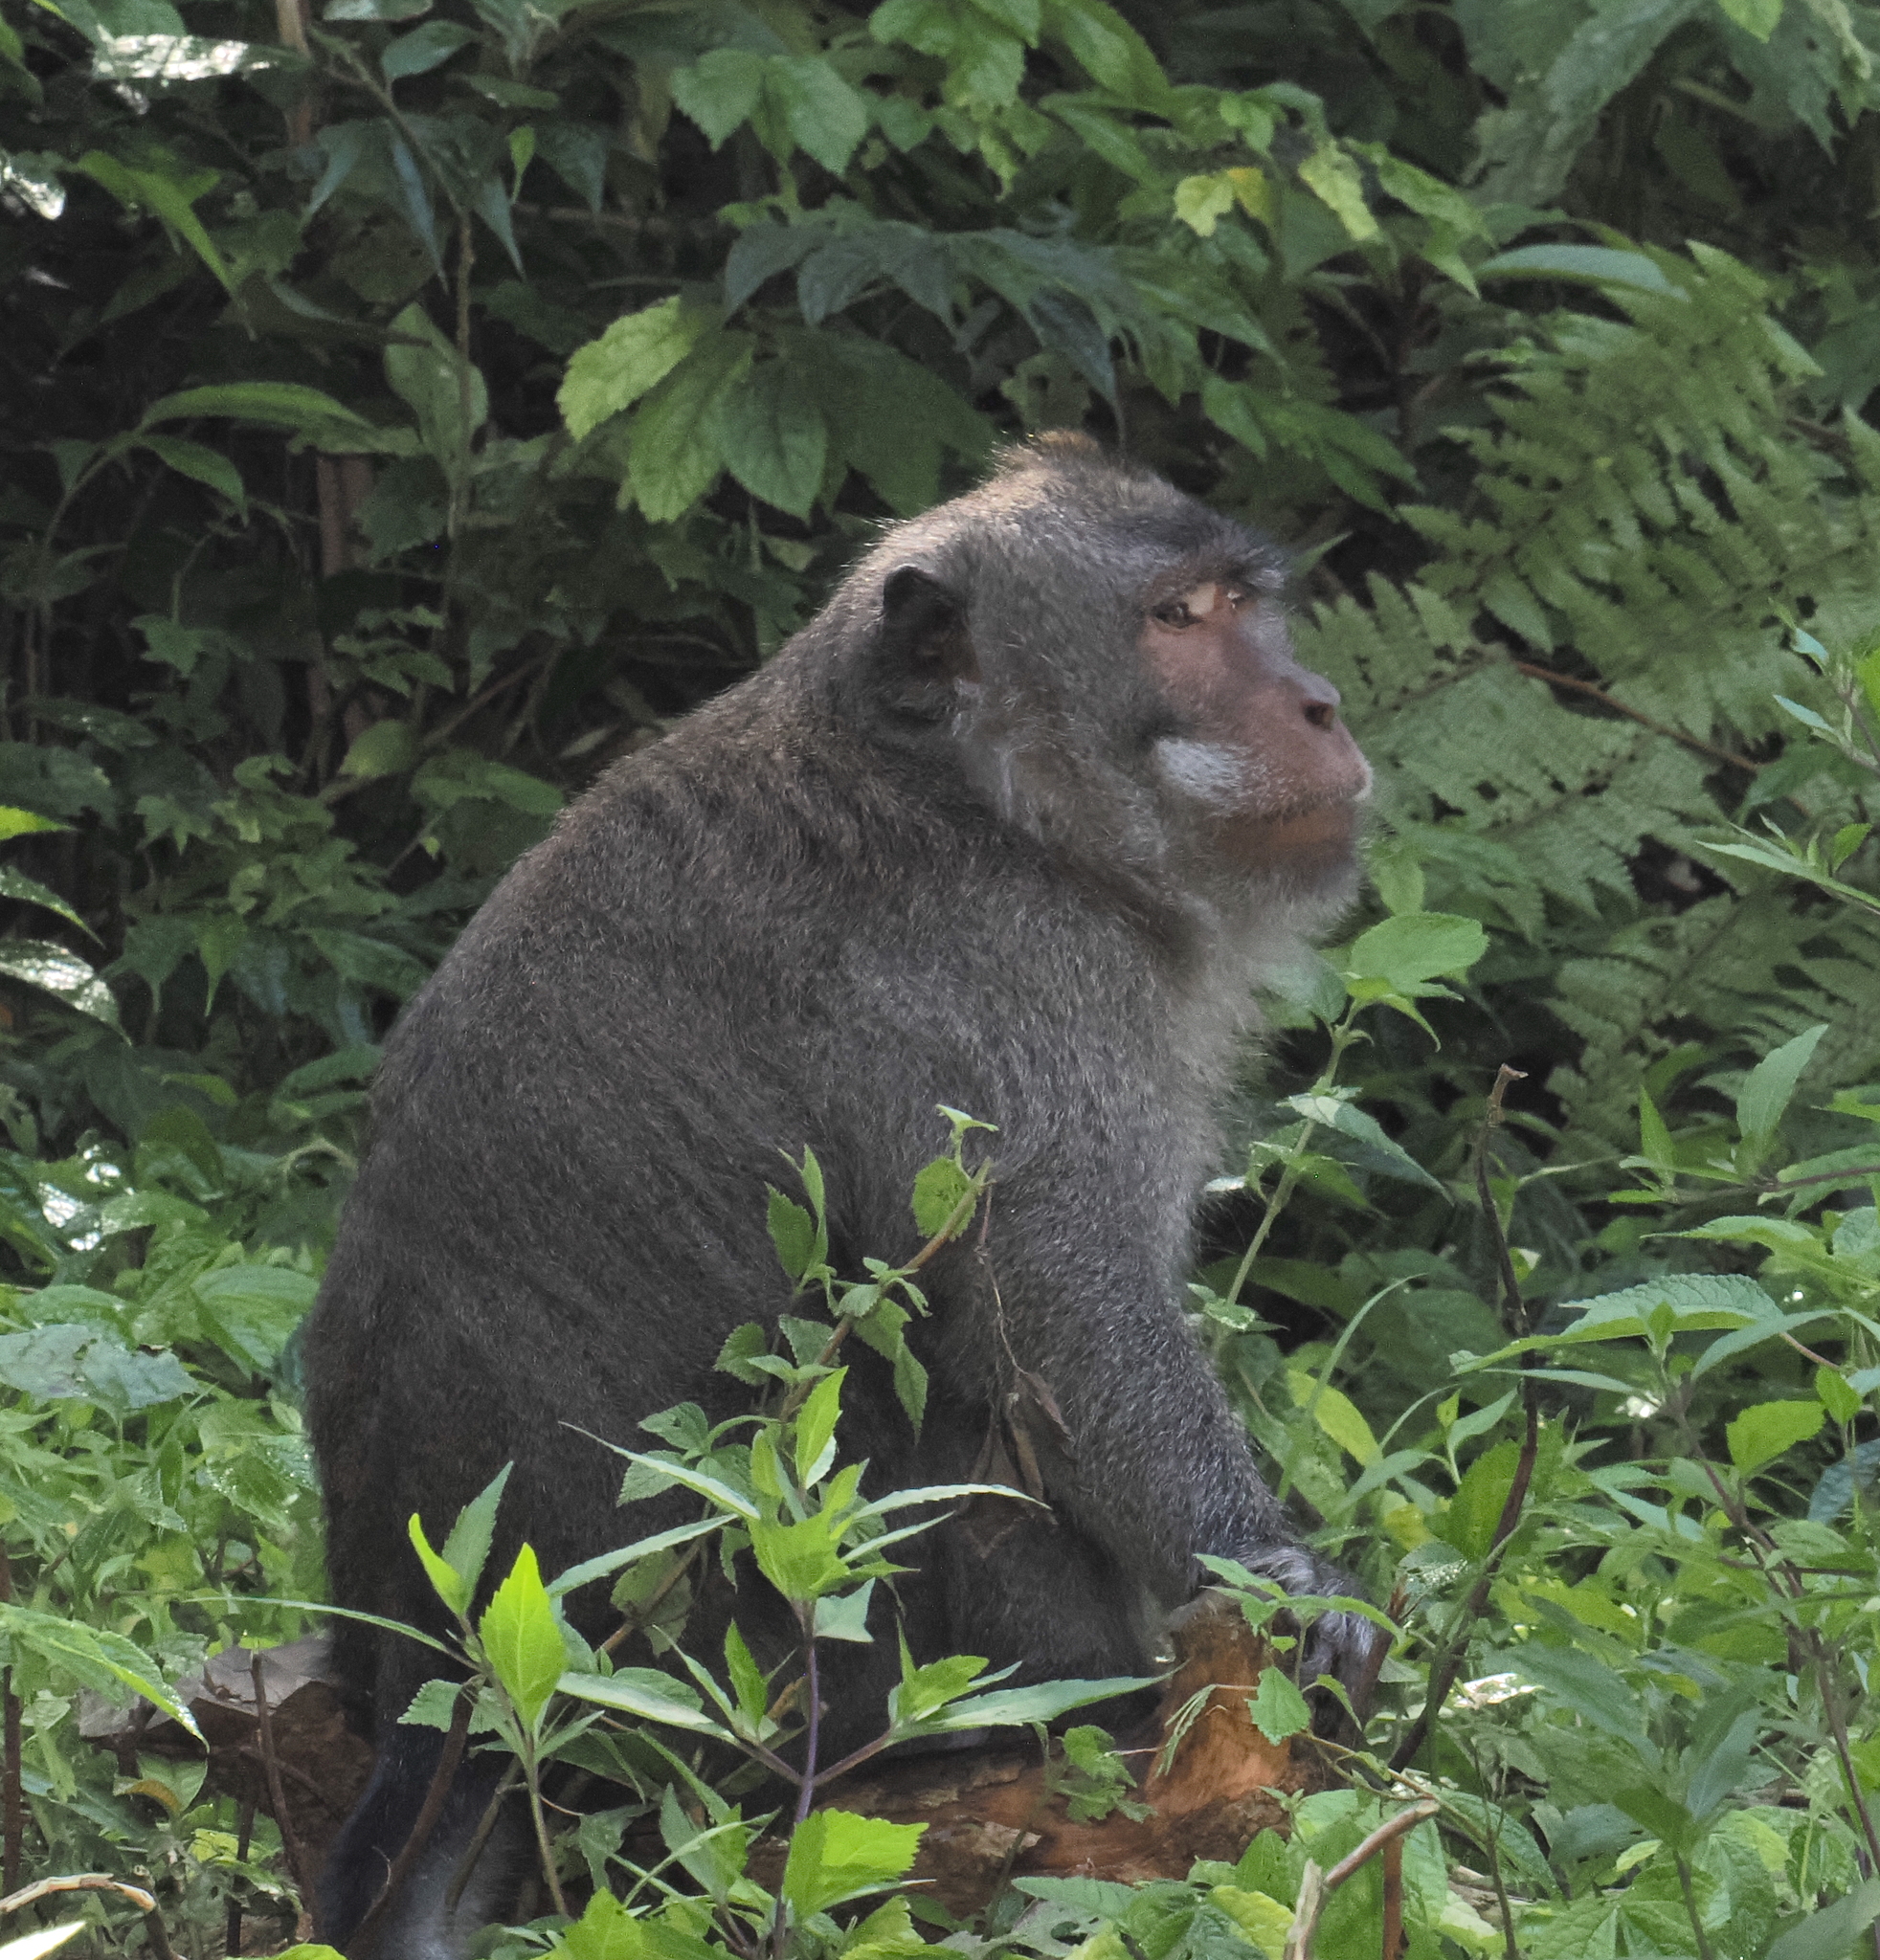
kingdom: Animalia
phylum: Chordata
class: Mammalia
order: Primates
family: Cercopithecidae
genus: Macaca
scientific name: Macaca fascicularis
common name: Crab-eating macaque
